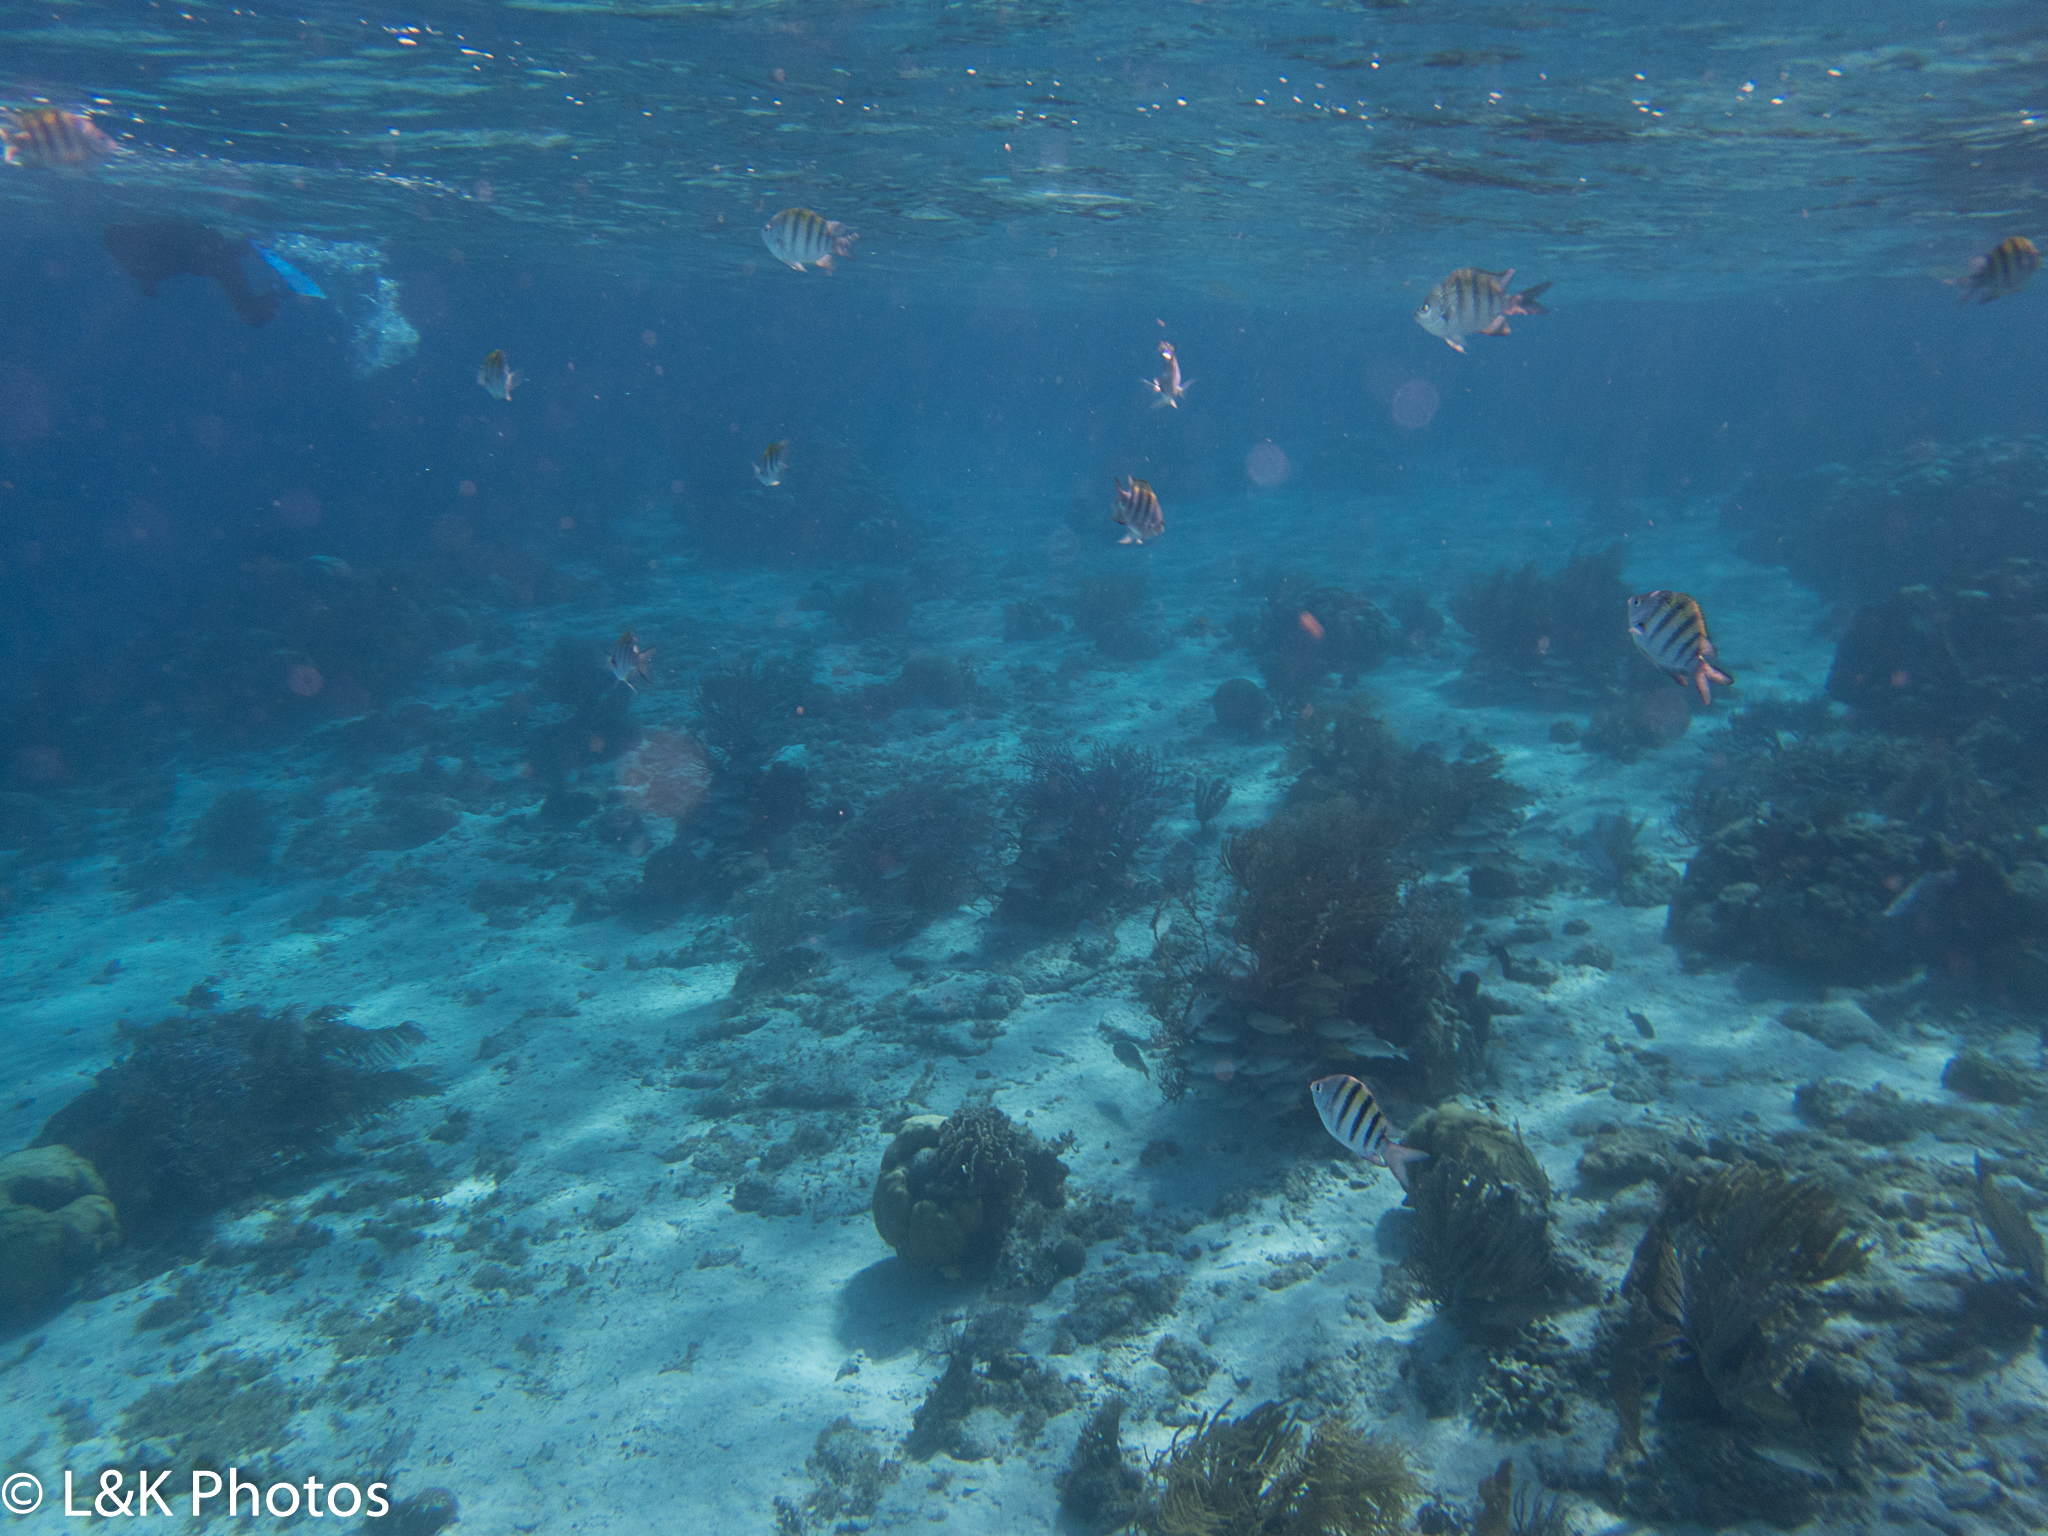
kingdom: Animalia
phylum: Chordata
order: Perciformes
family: Pomacentridae
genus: Abudefduf
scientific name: Abudefduf saxatilis
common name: Sergeant major
